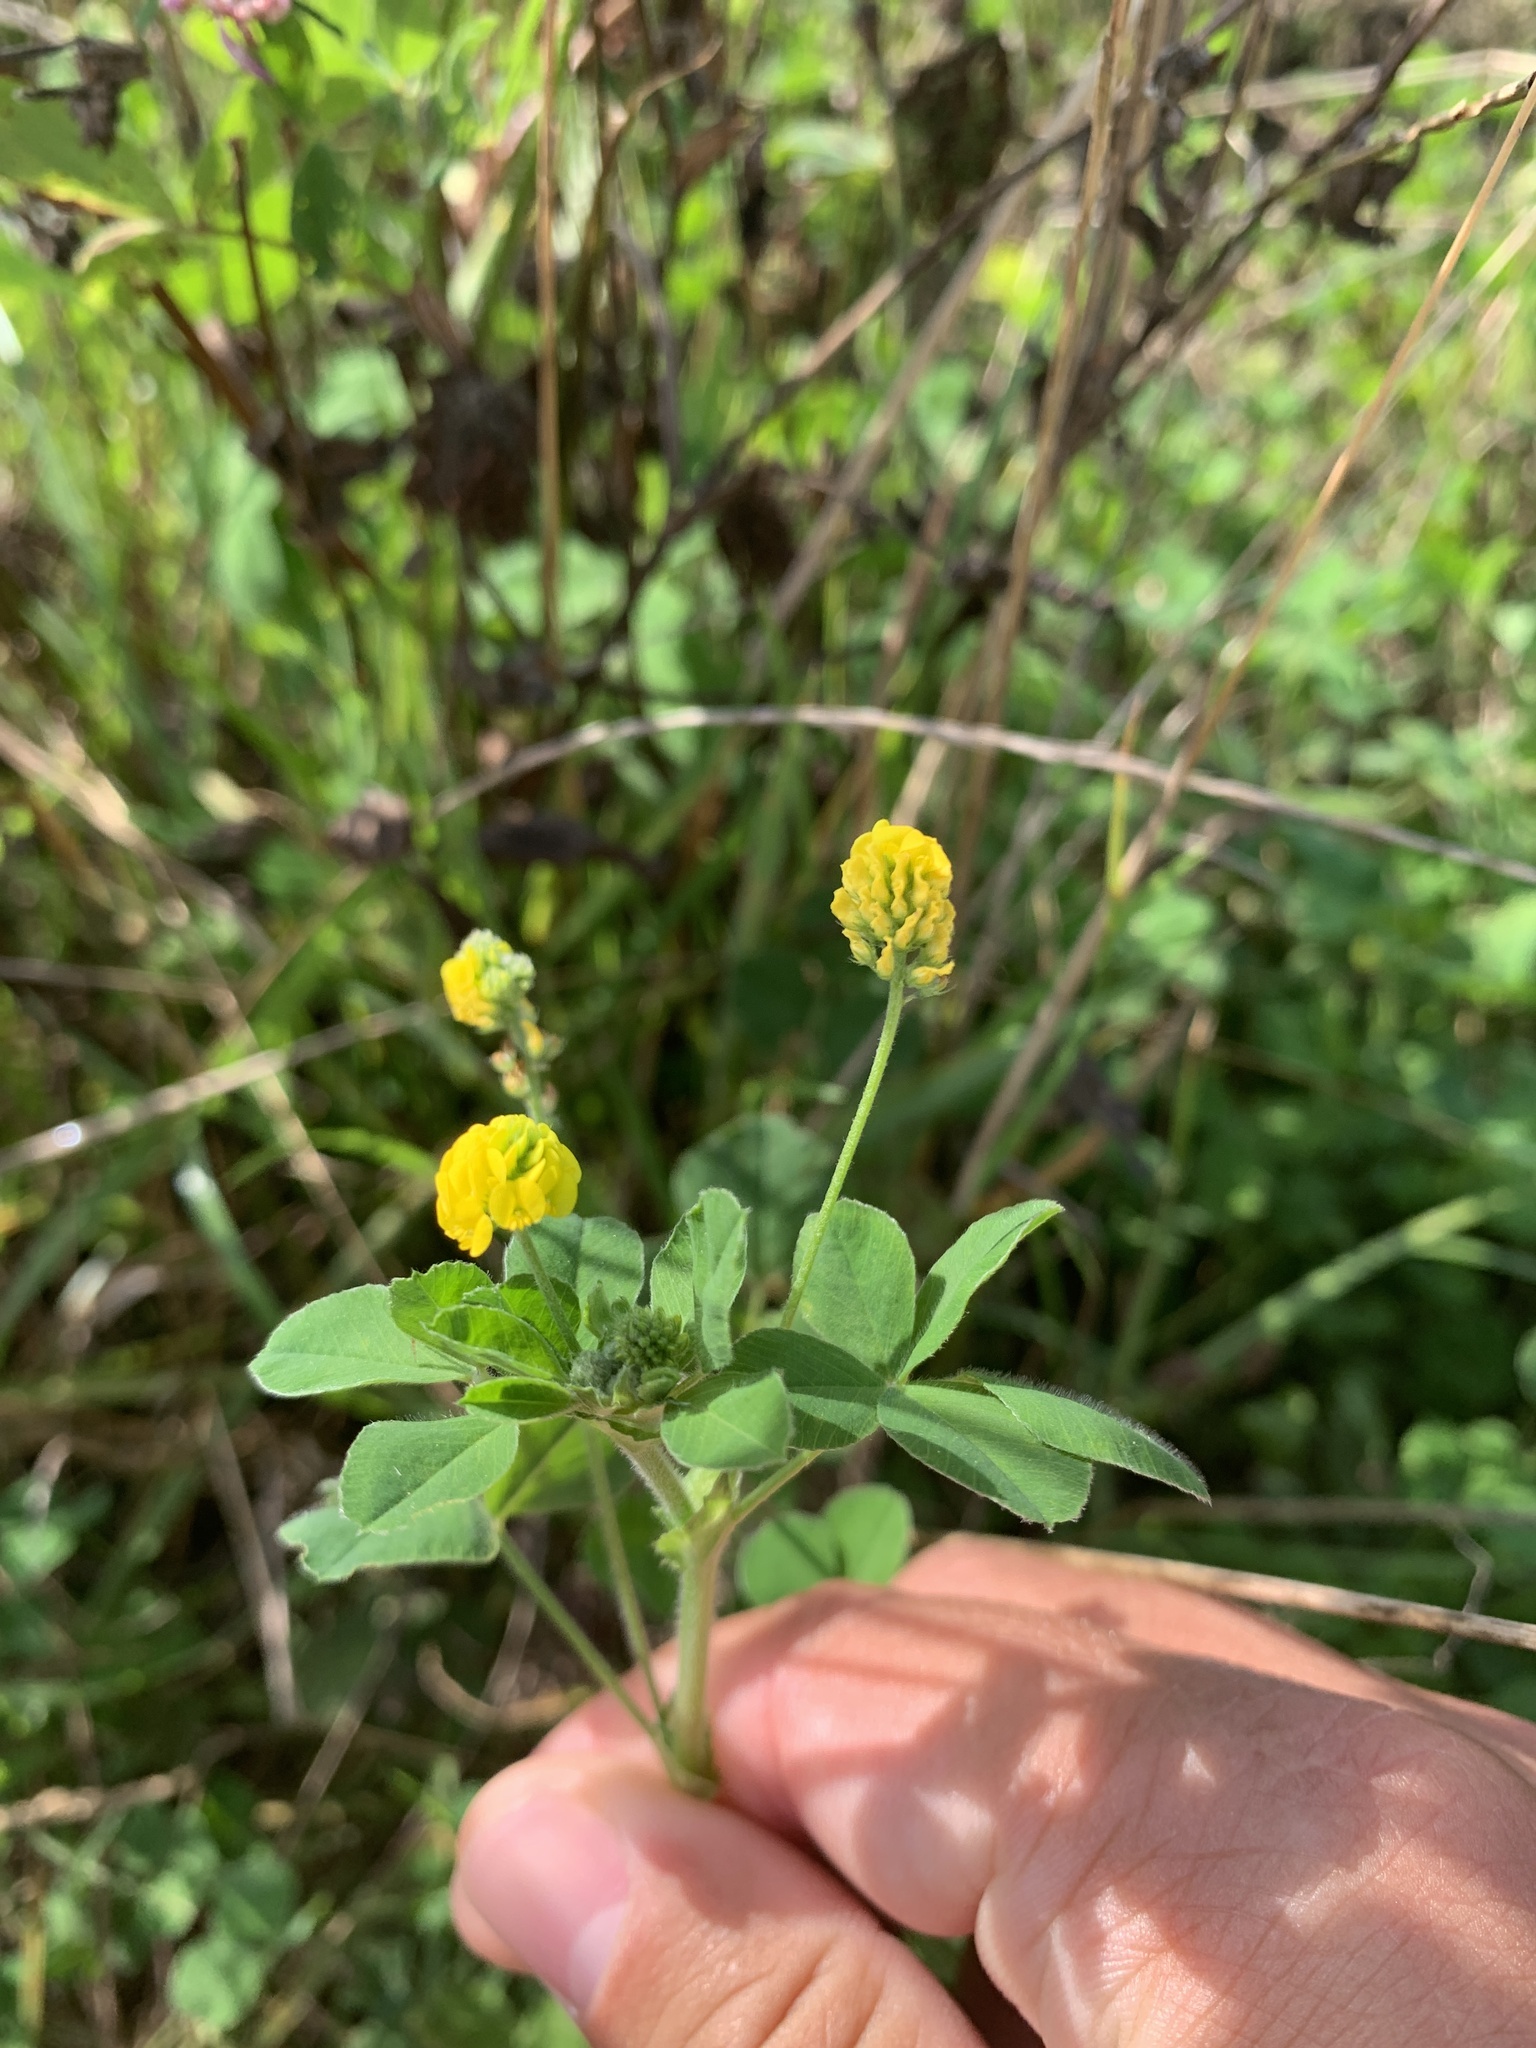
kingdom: Plantae
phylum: Tracheophyta
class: Magnoliopsida
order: Fabales
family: Fabaceae
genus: Medicago
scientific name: Medicago lupulina
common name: Black medick
